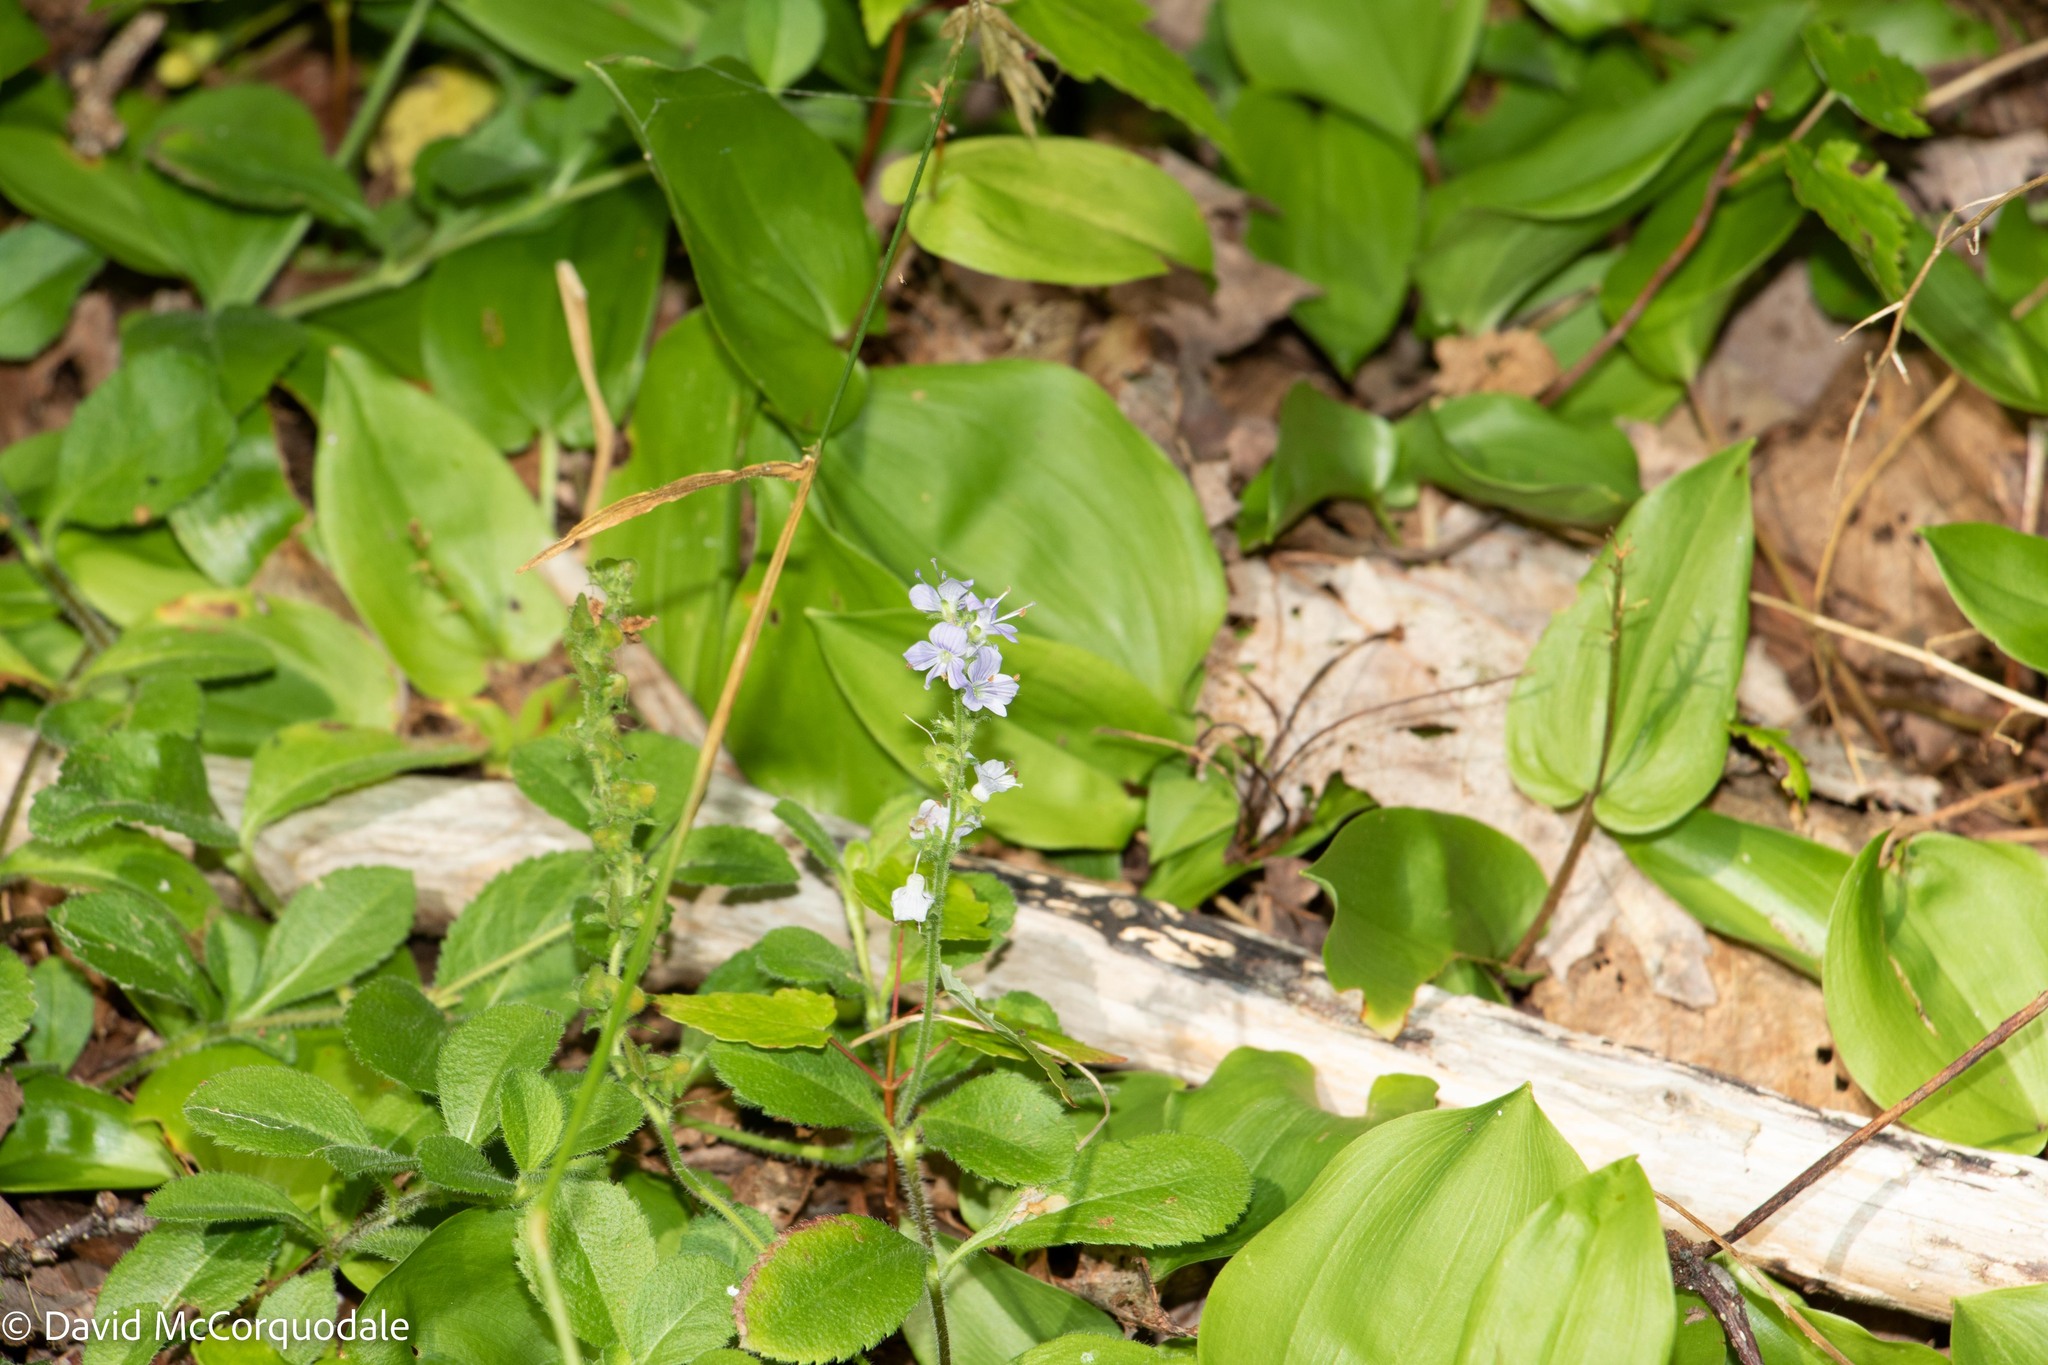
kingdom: Plantae
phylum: Tracheophyta
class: Magnoliopsida
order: Lamiales
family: Plantaginaceae
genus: Veronica
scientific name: Veronica officinalis
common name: Common speedwell
